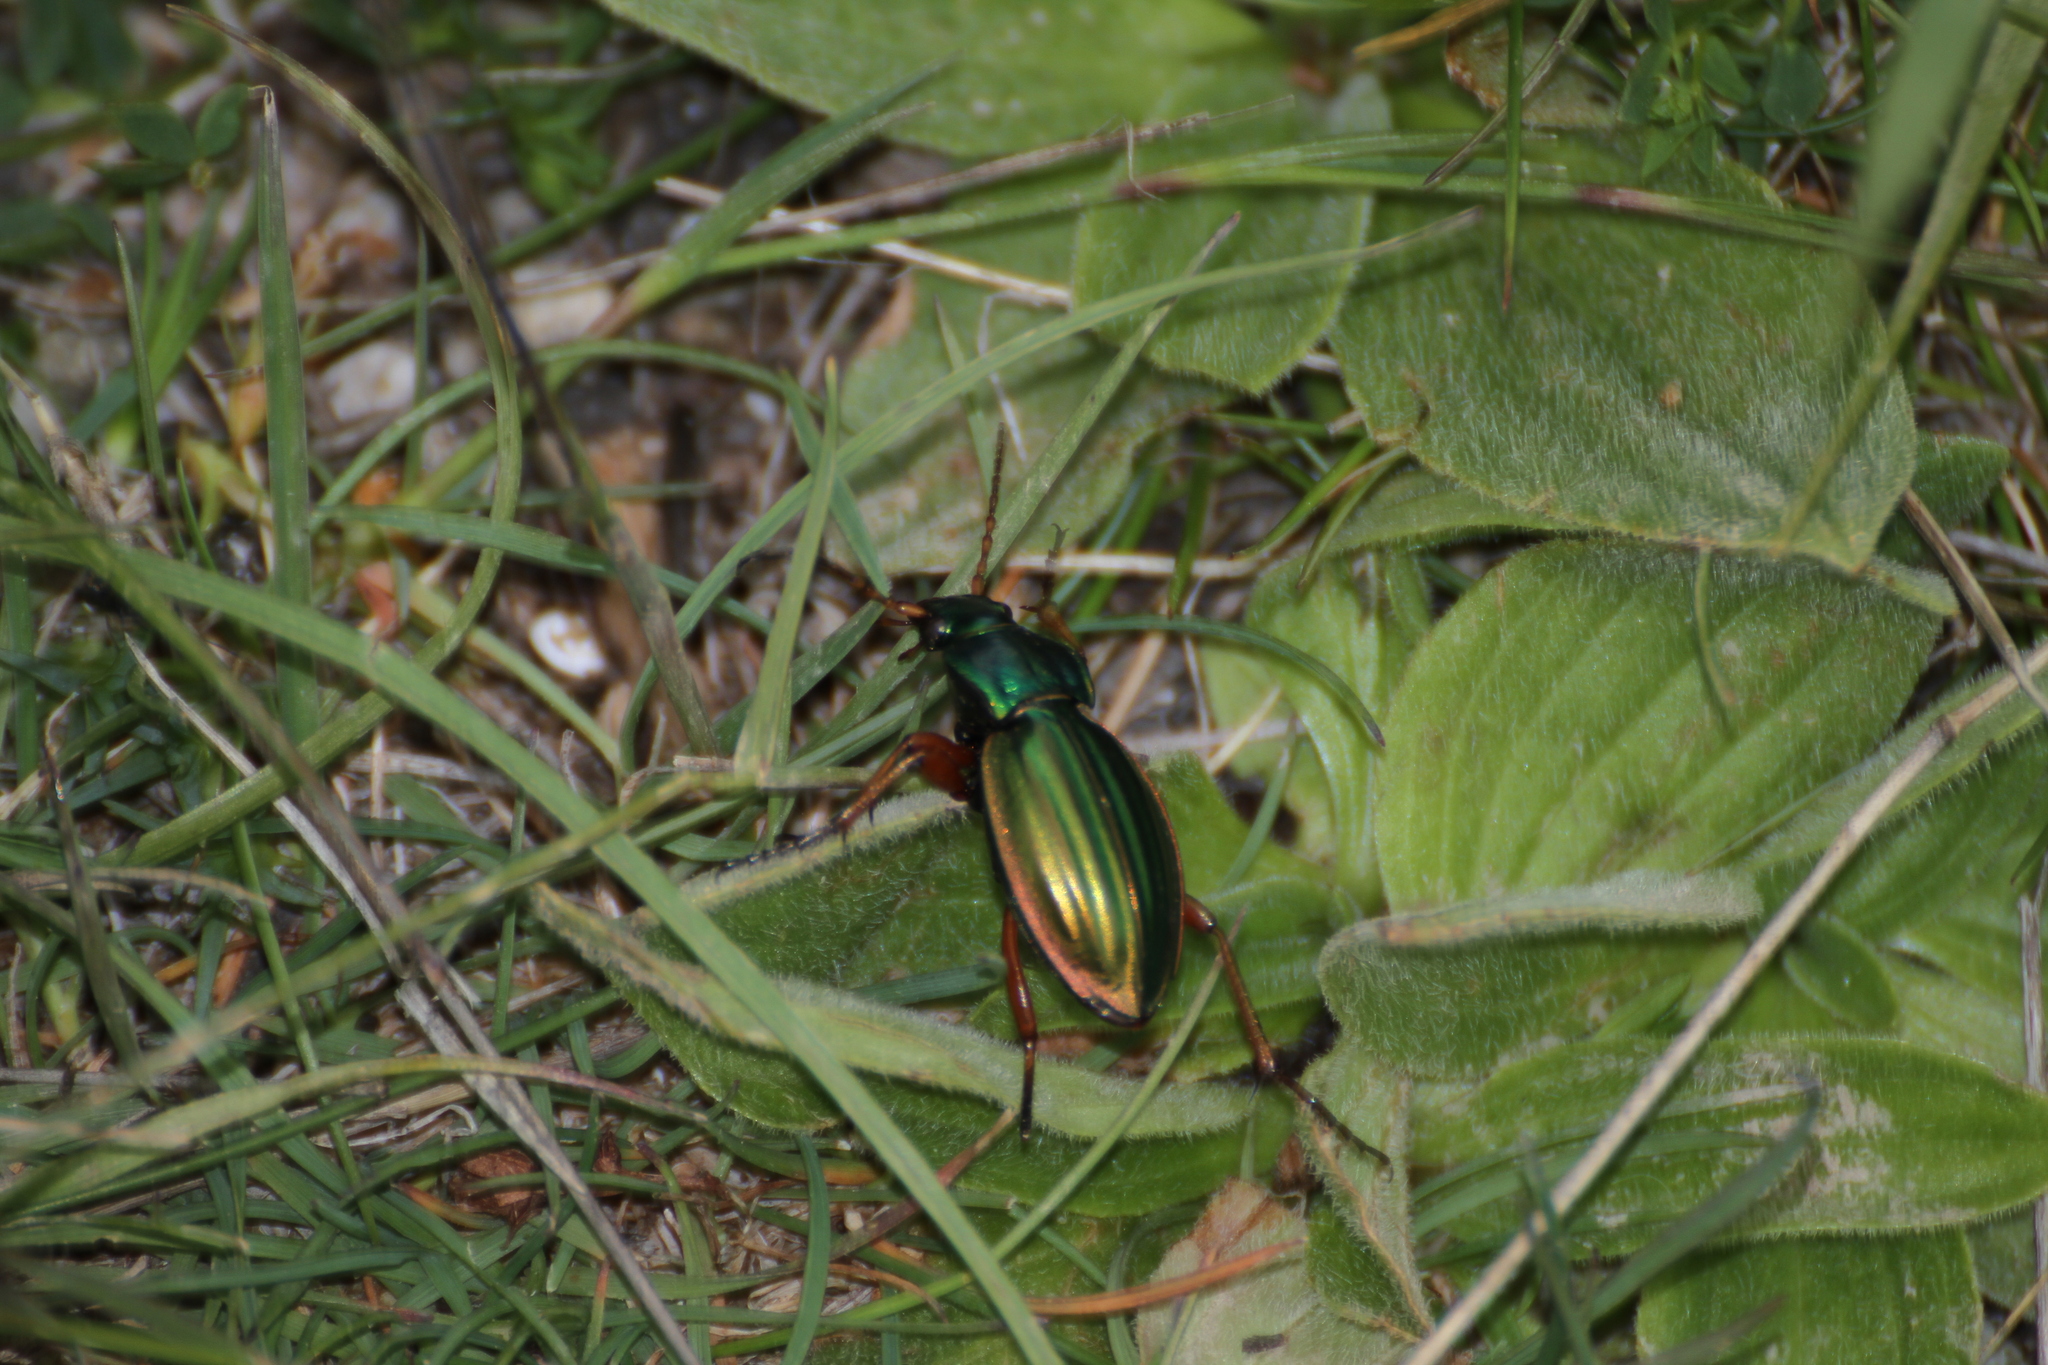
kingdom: Animalia
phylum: Arthropoda
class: Insecta
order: Coleoptera
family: Carabidae
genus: Carabus
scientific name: Carabus auratus
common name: Golden ground beetle
